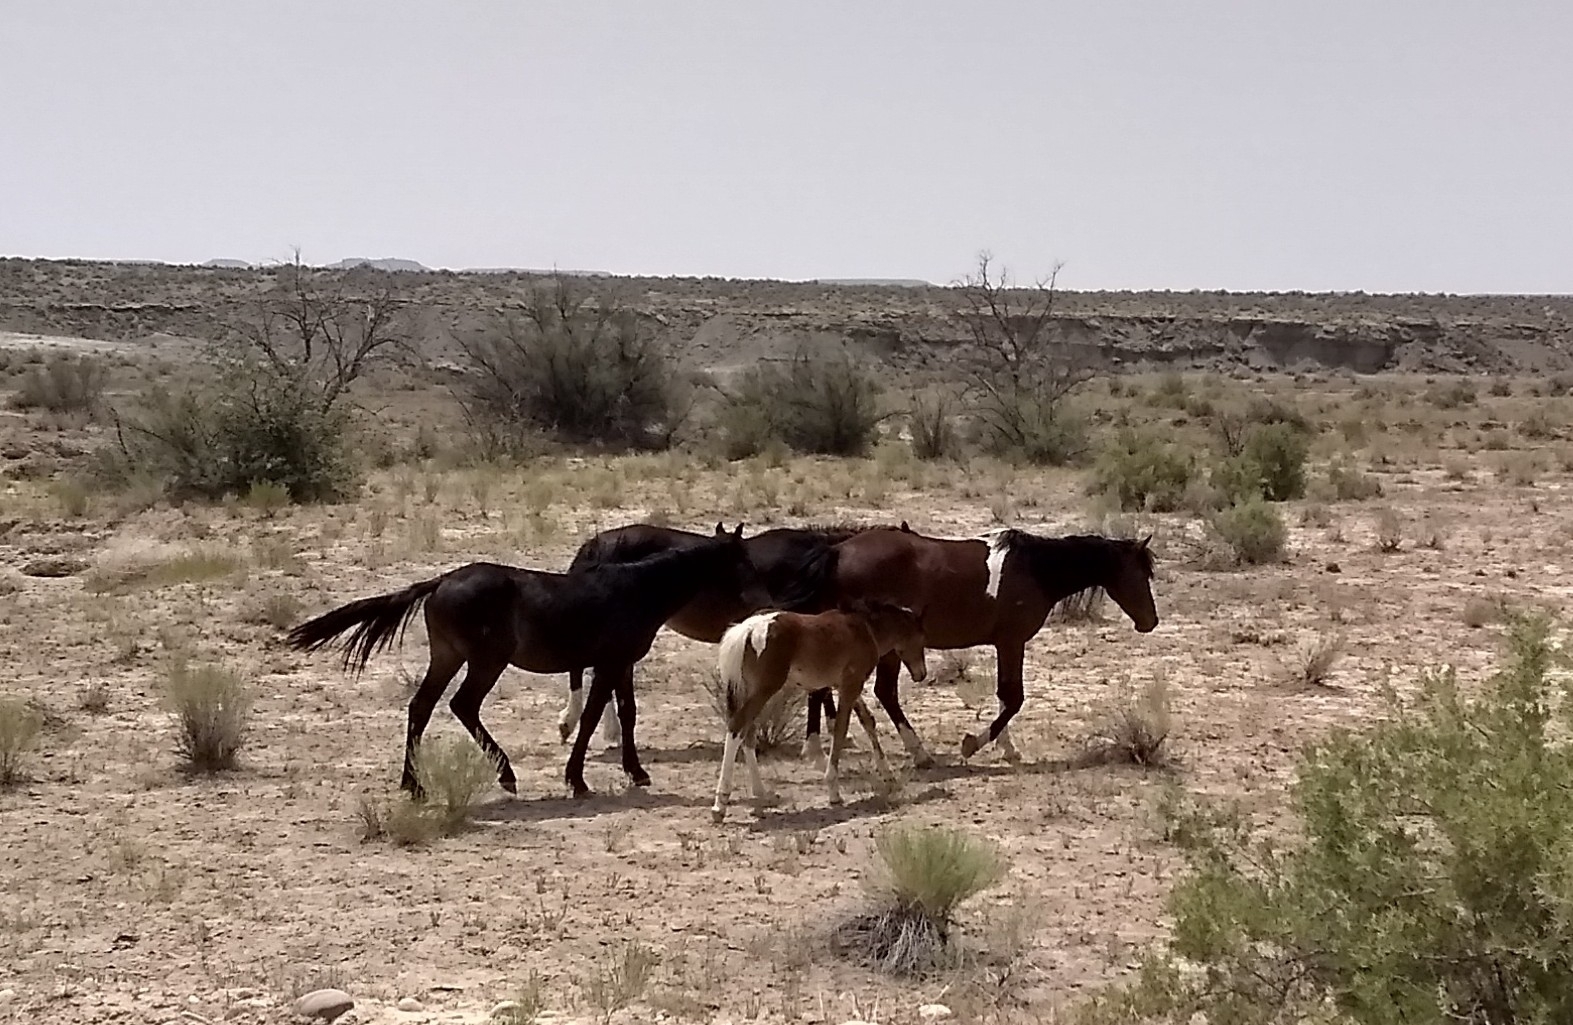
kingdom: Animalia
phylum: Chordata
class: Mammalia
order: Perissodactyla
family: Equidae
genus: Equus
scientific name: Equus caballus
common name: Horse
